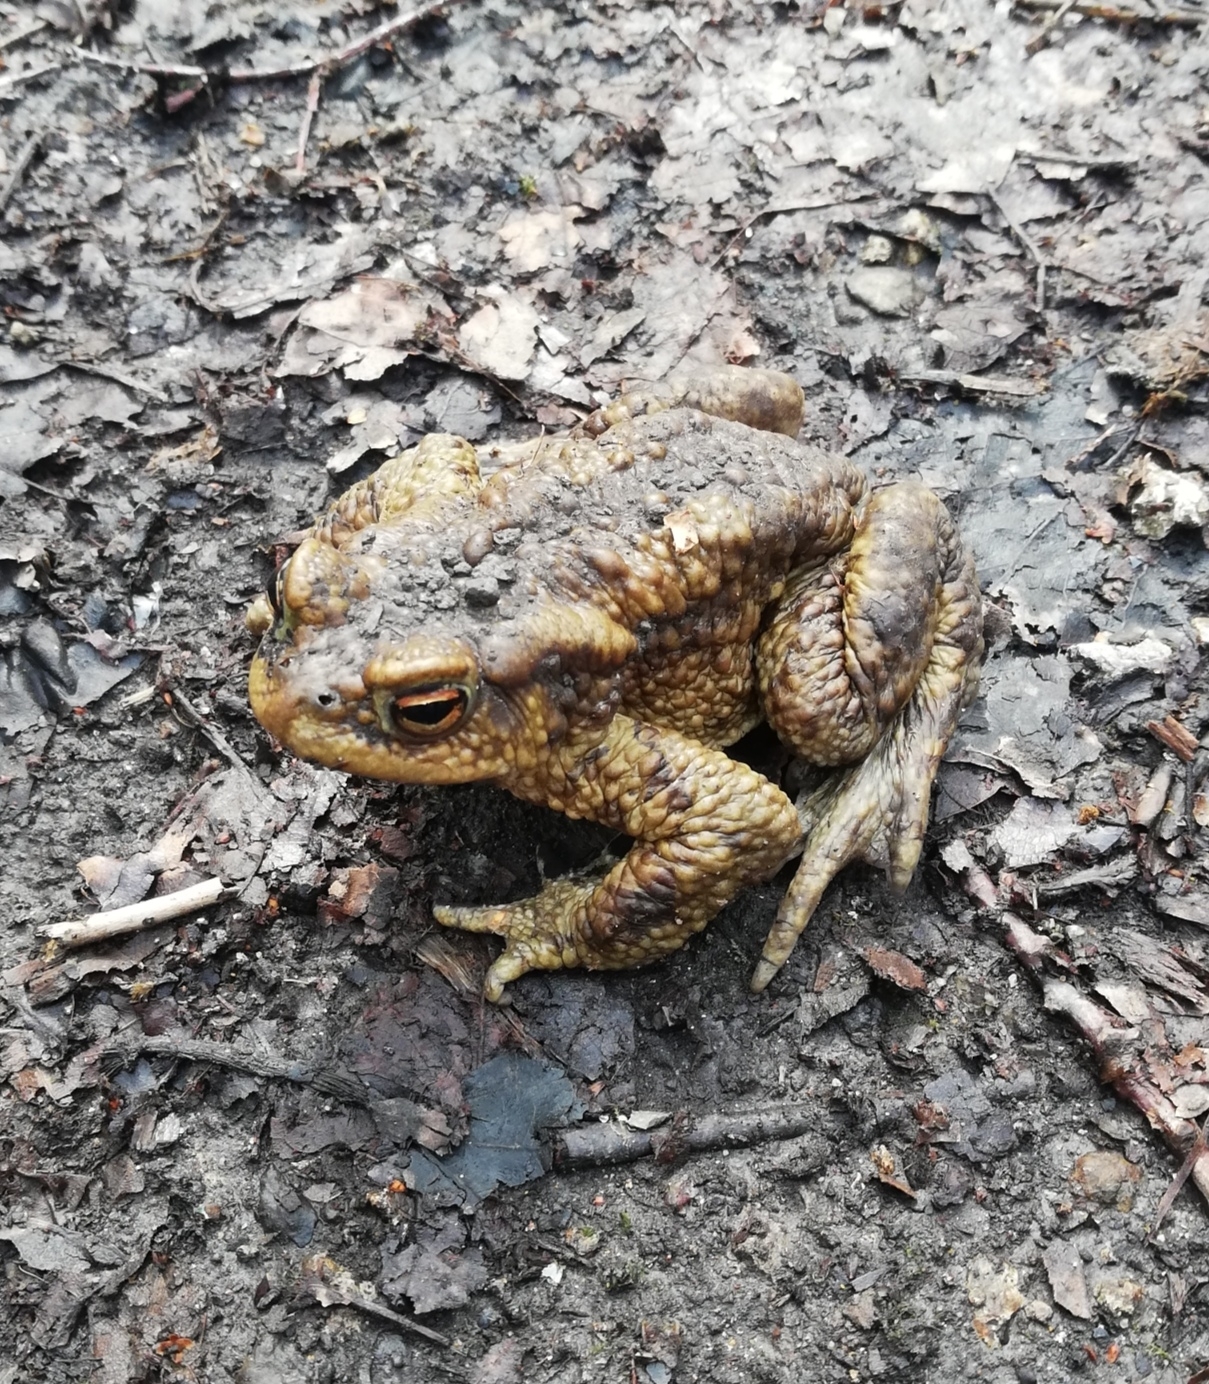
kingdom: Animalia
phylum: Chordata
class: Amphibia
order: Anura
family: Bufonidae
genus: Bufo
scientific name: Bufo bufo
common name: Common toad
